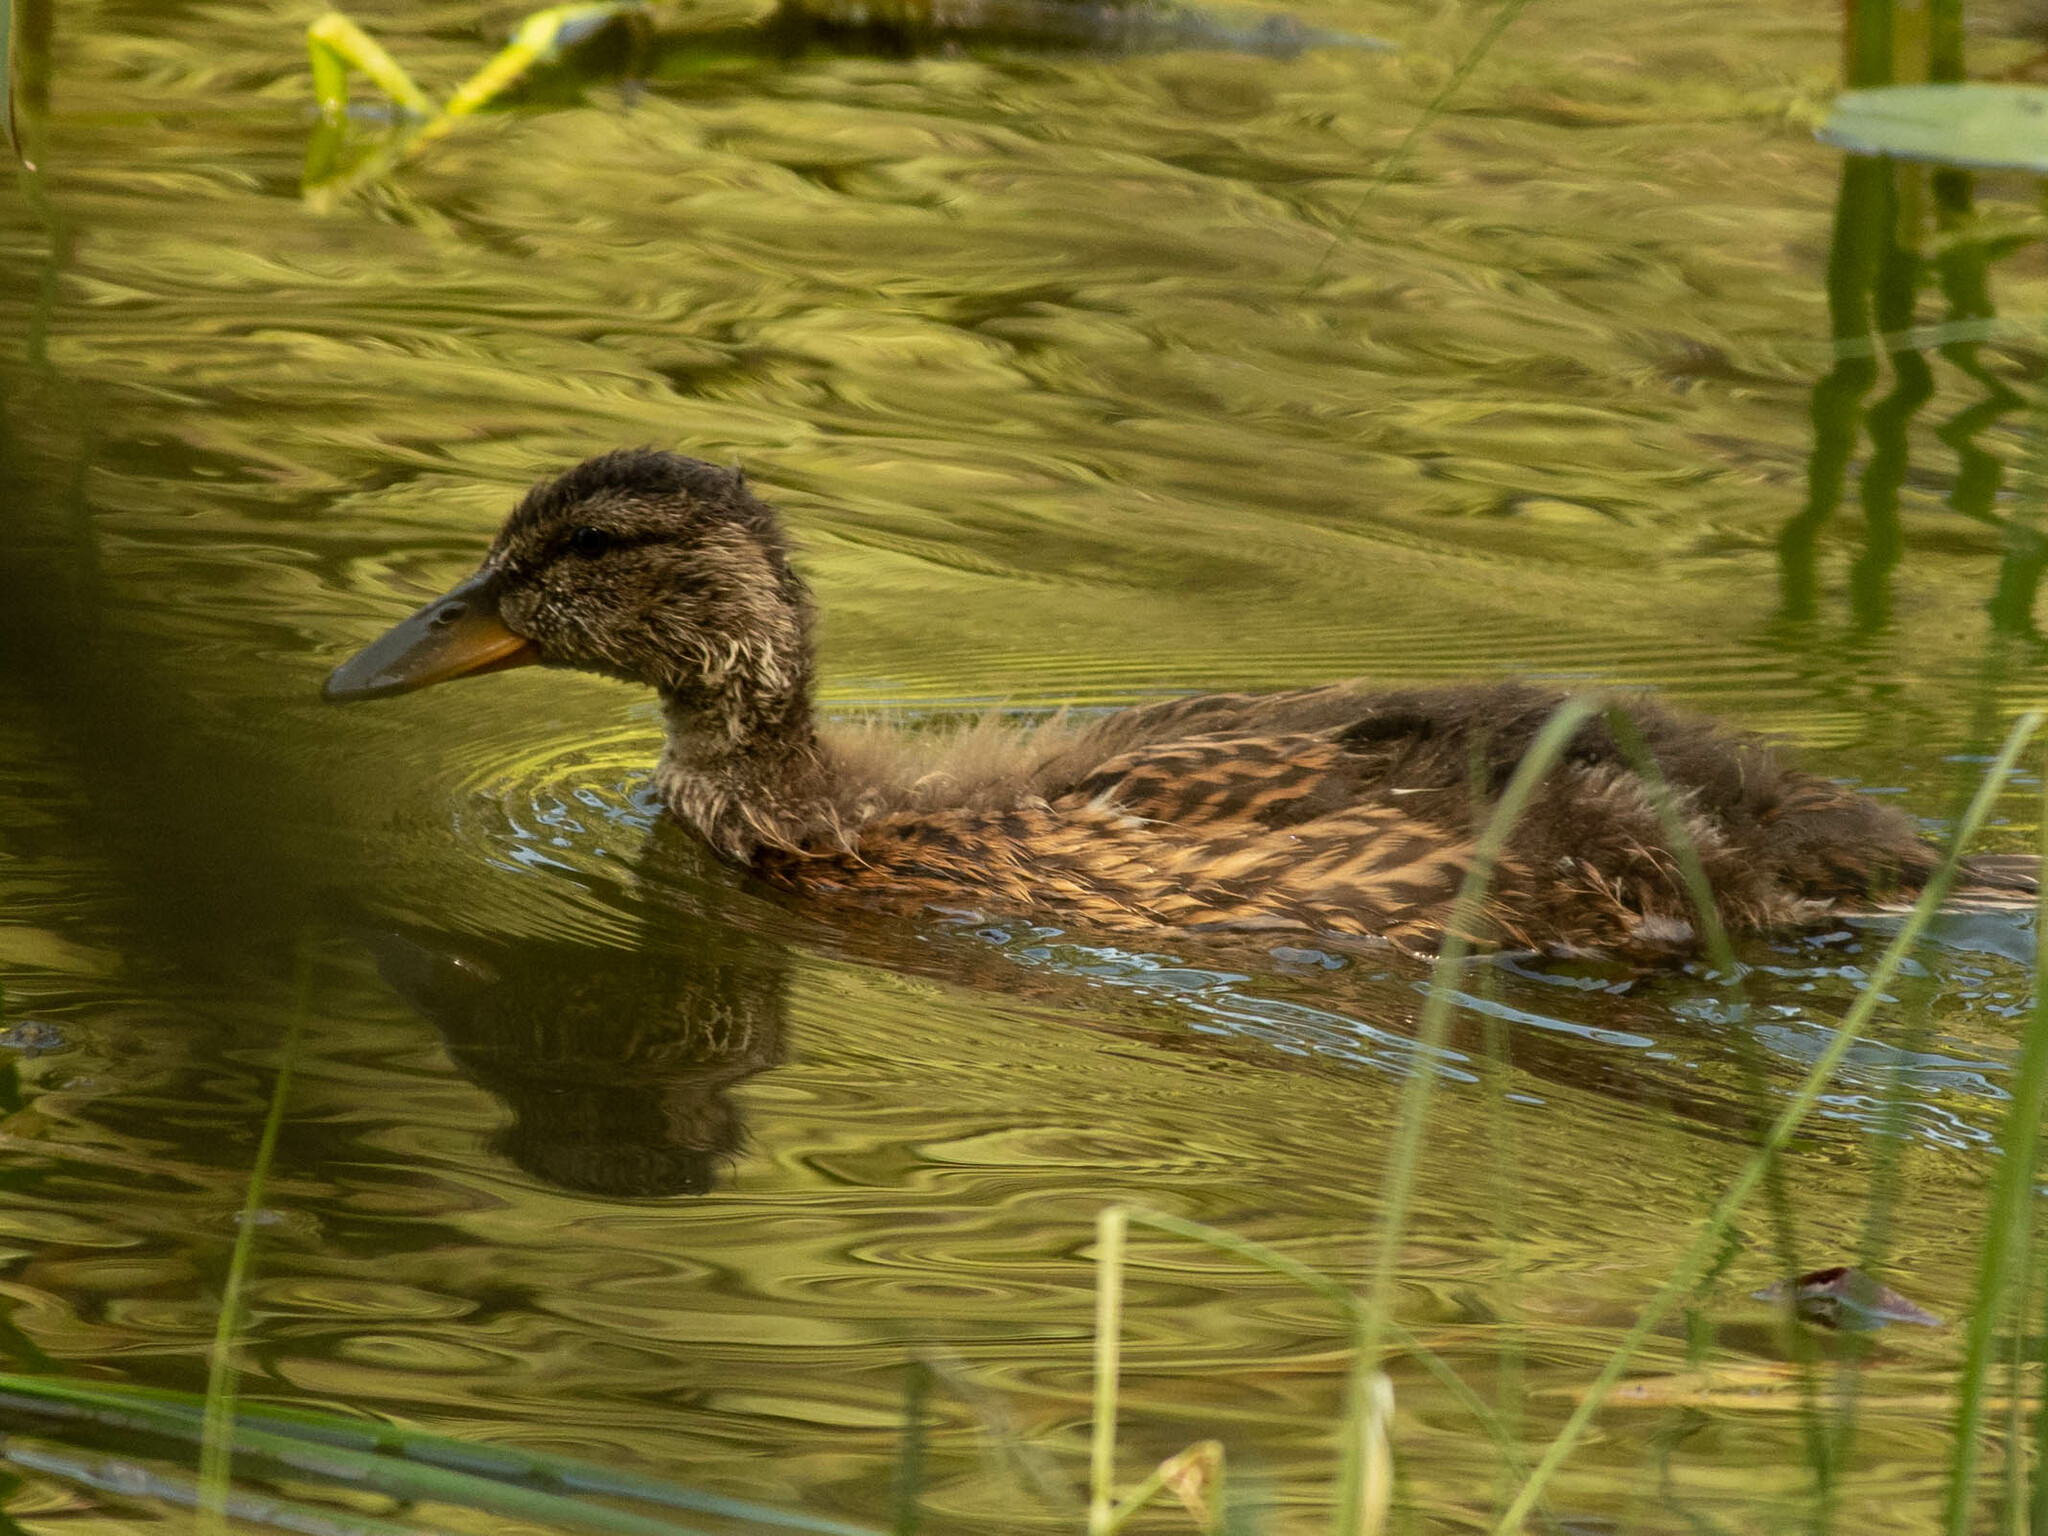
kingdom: Animalia
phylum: Chordata
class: Aves
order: Anseriformes
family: Anatidae
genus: Anas
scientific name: Anas platyrhynchos
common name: Mallard
